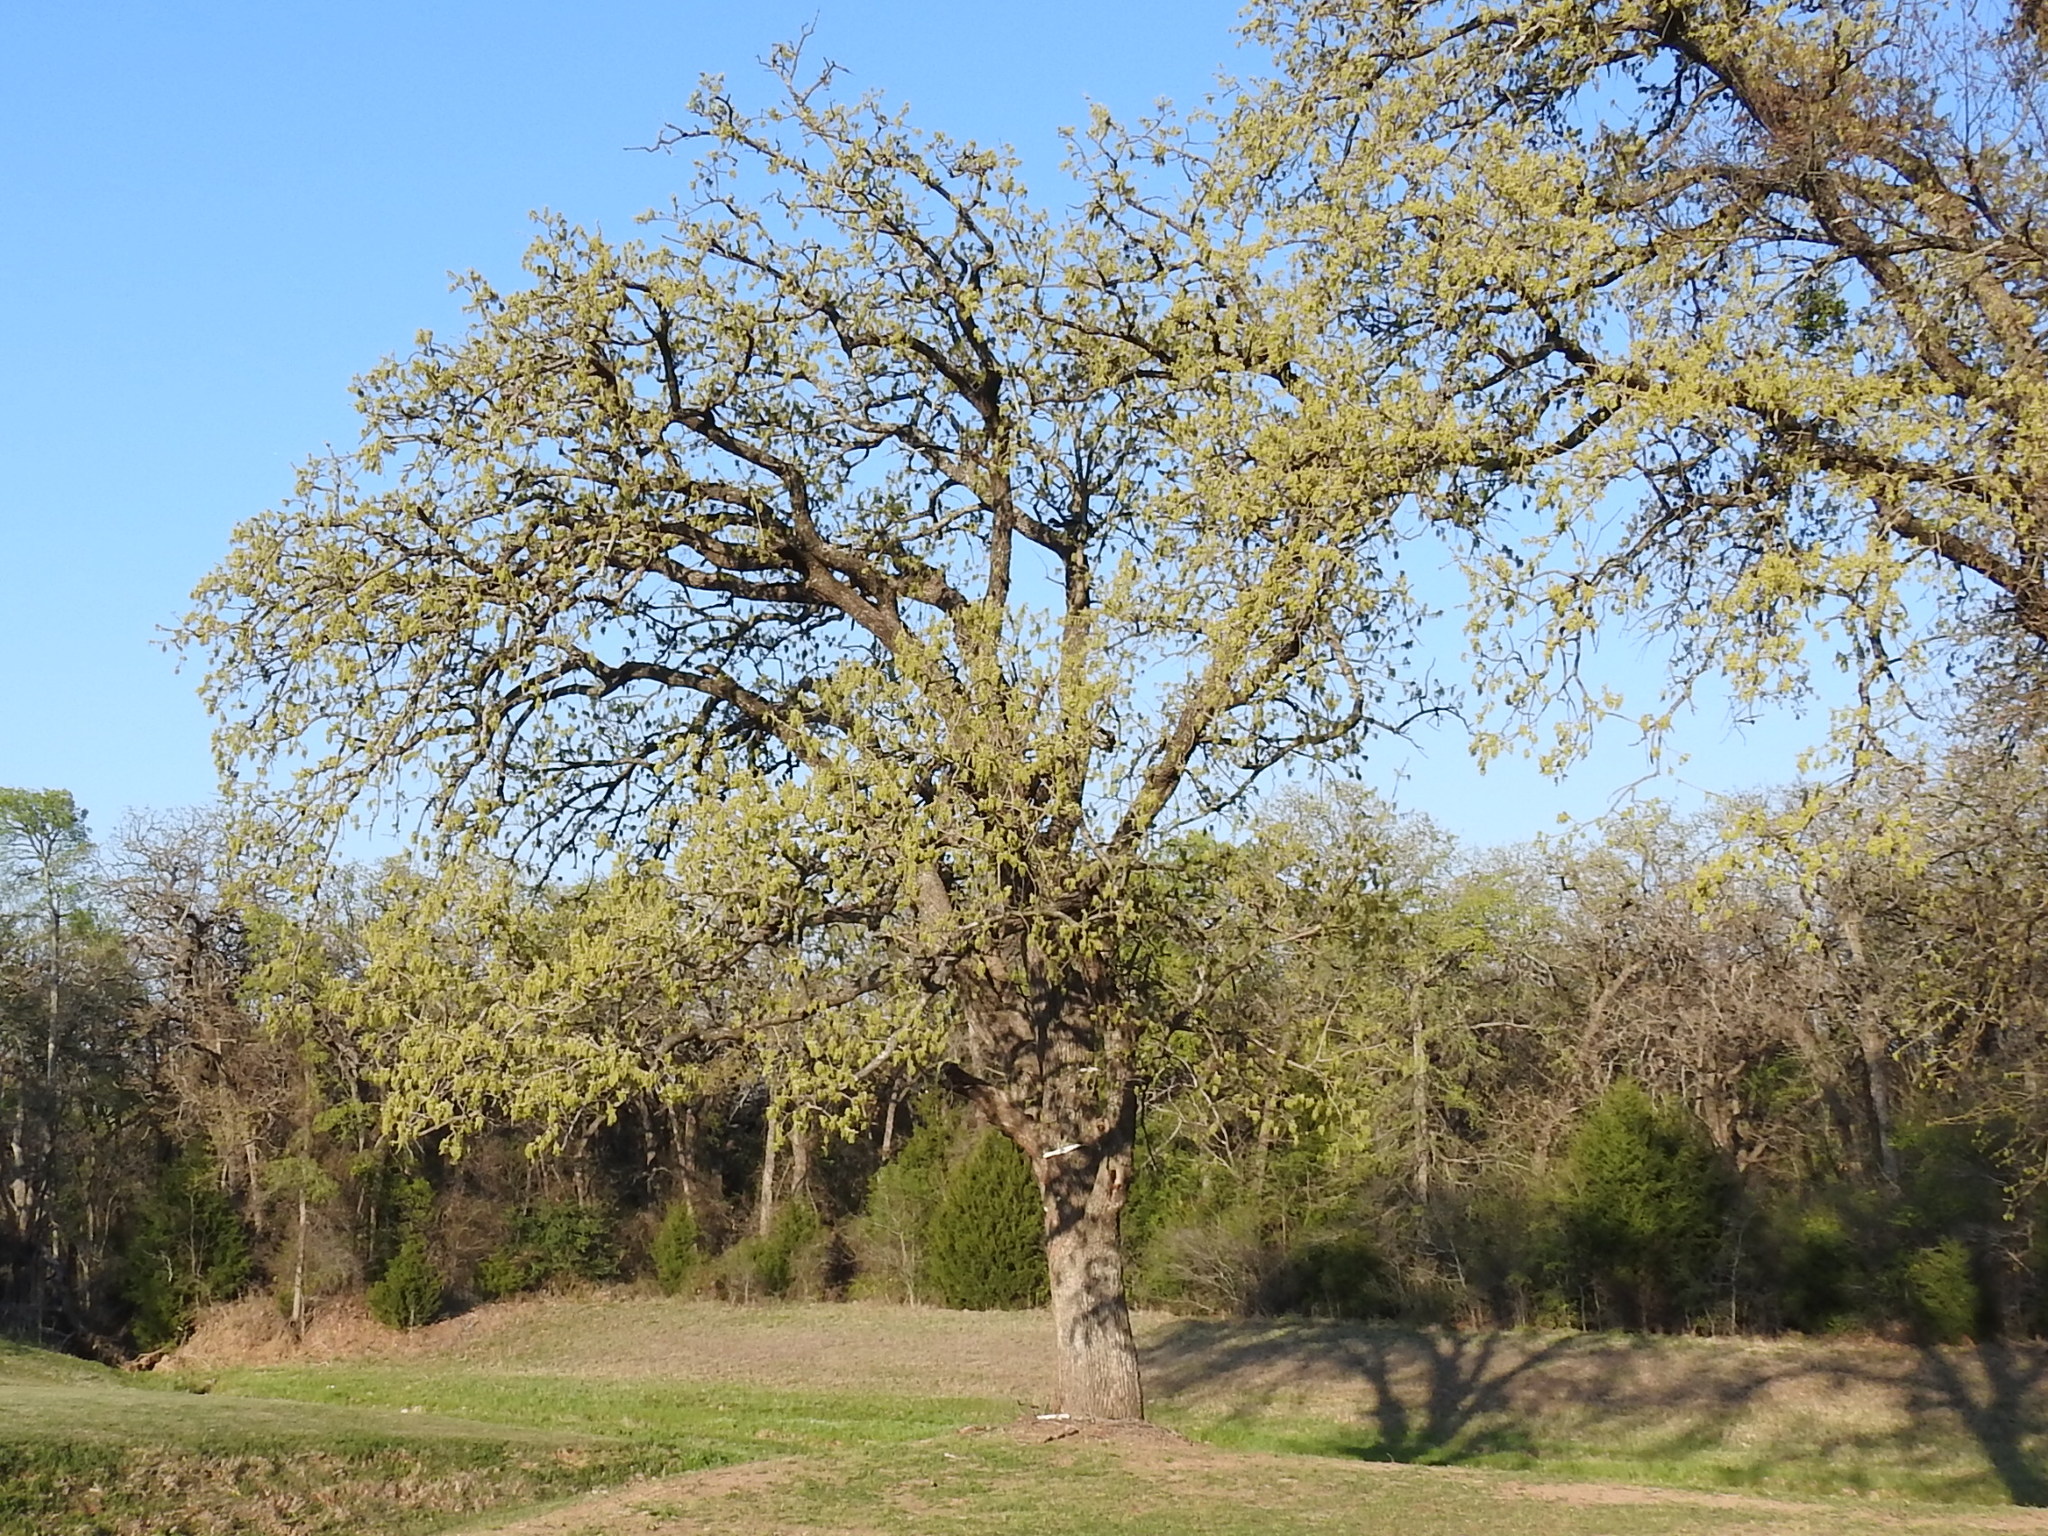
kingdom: Plantae
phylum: Tracheophyta
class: Magnoliopsida
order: Fagales
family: Fagaceae
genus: Quercus
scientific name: Quercus stellata
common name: Post oak
